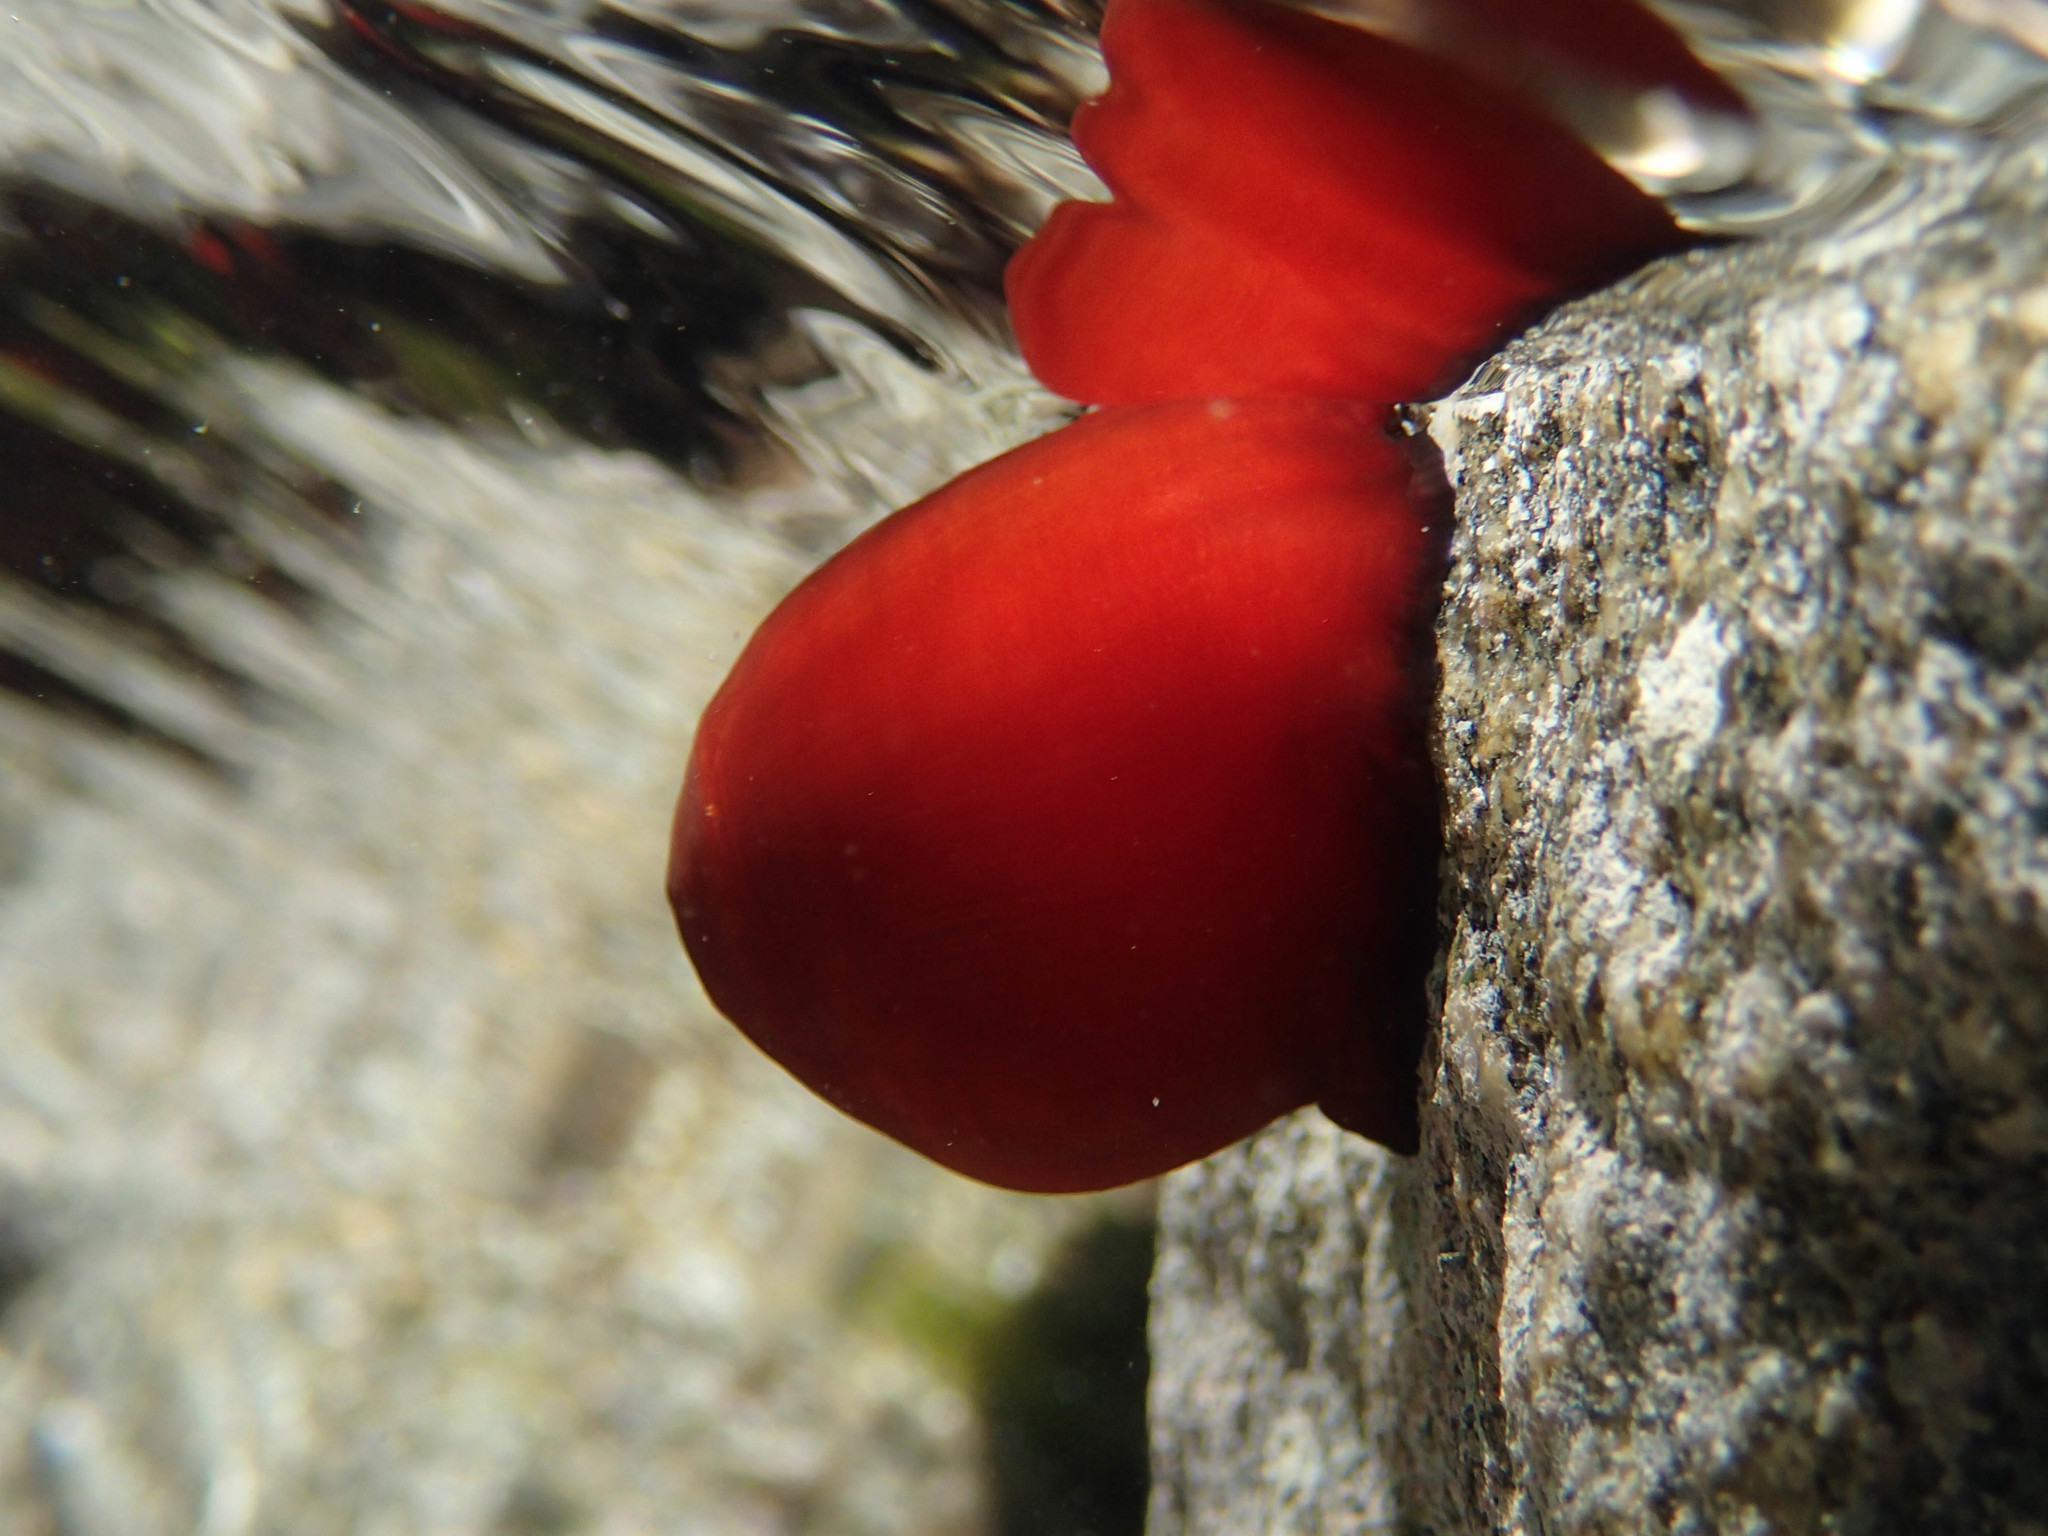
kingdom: Animalia
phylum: Cnidaria
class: Anthozoa
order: Actiniaria
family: Actiniidae
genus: Actinia
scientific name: Actinia mediterranea
